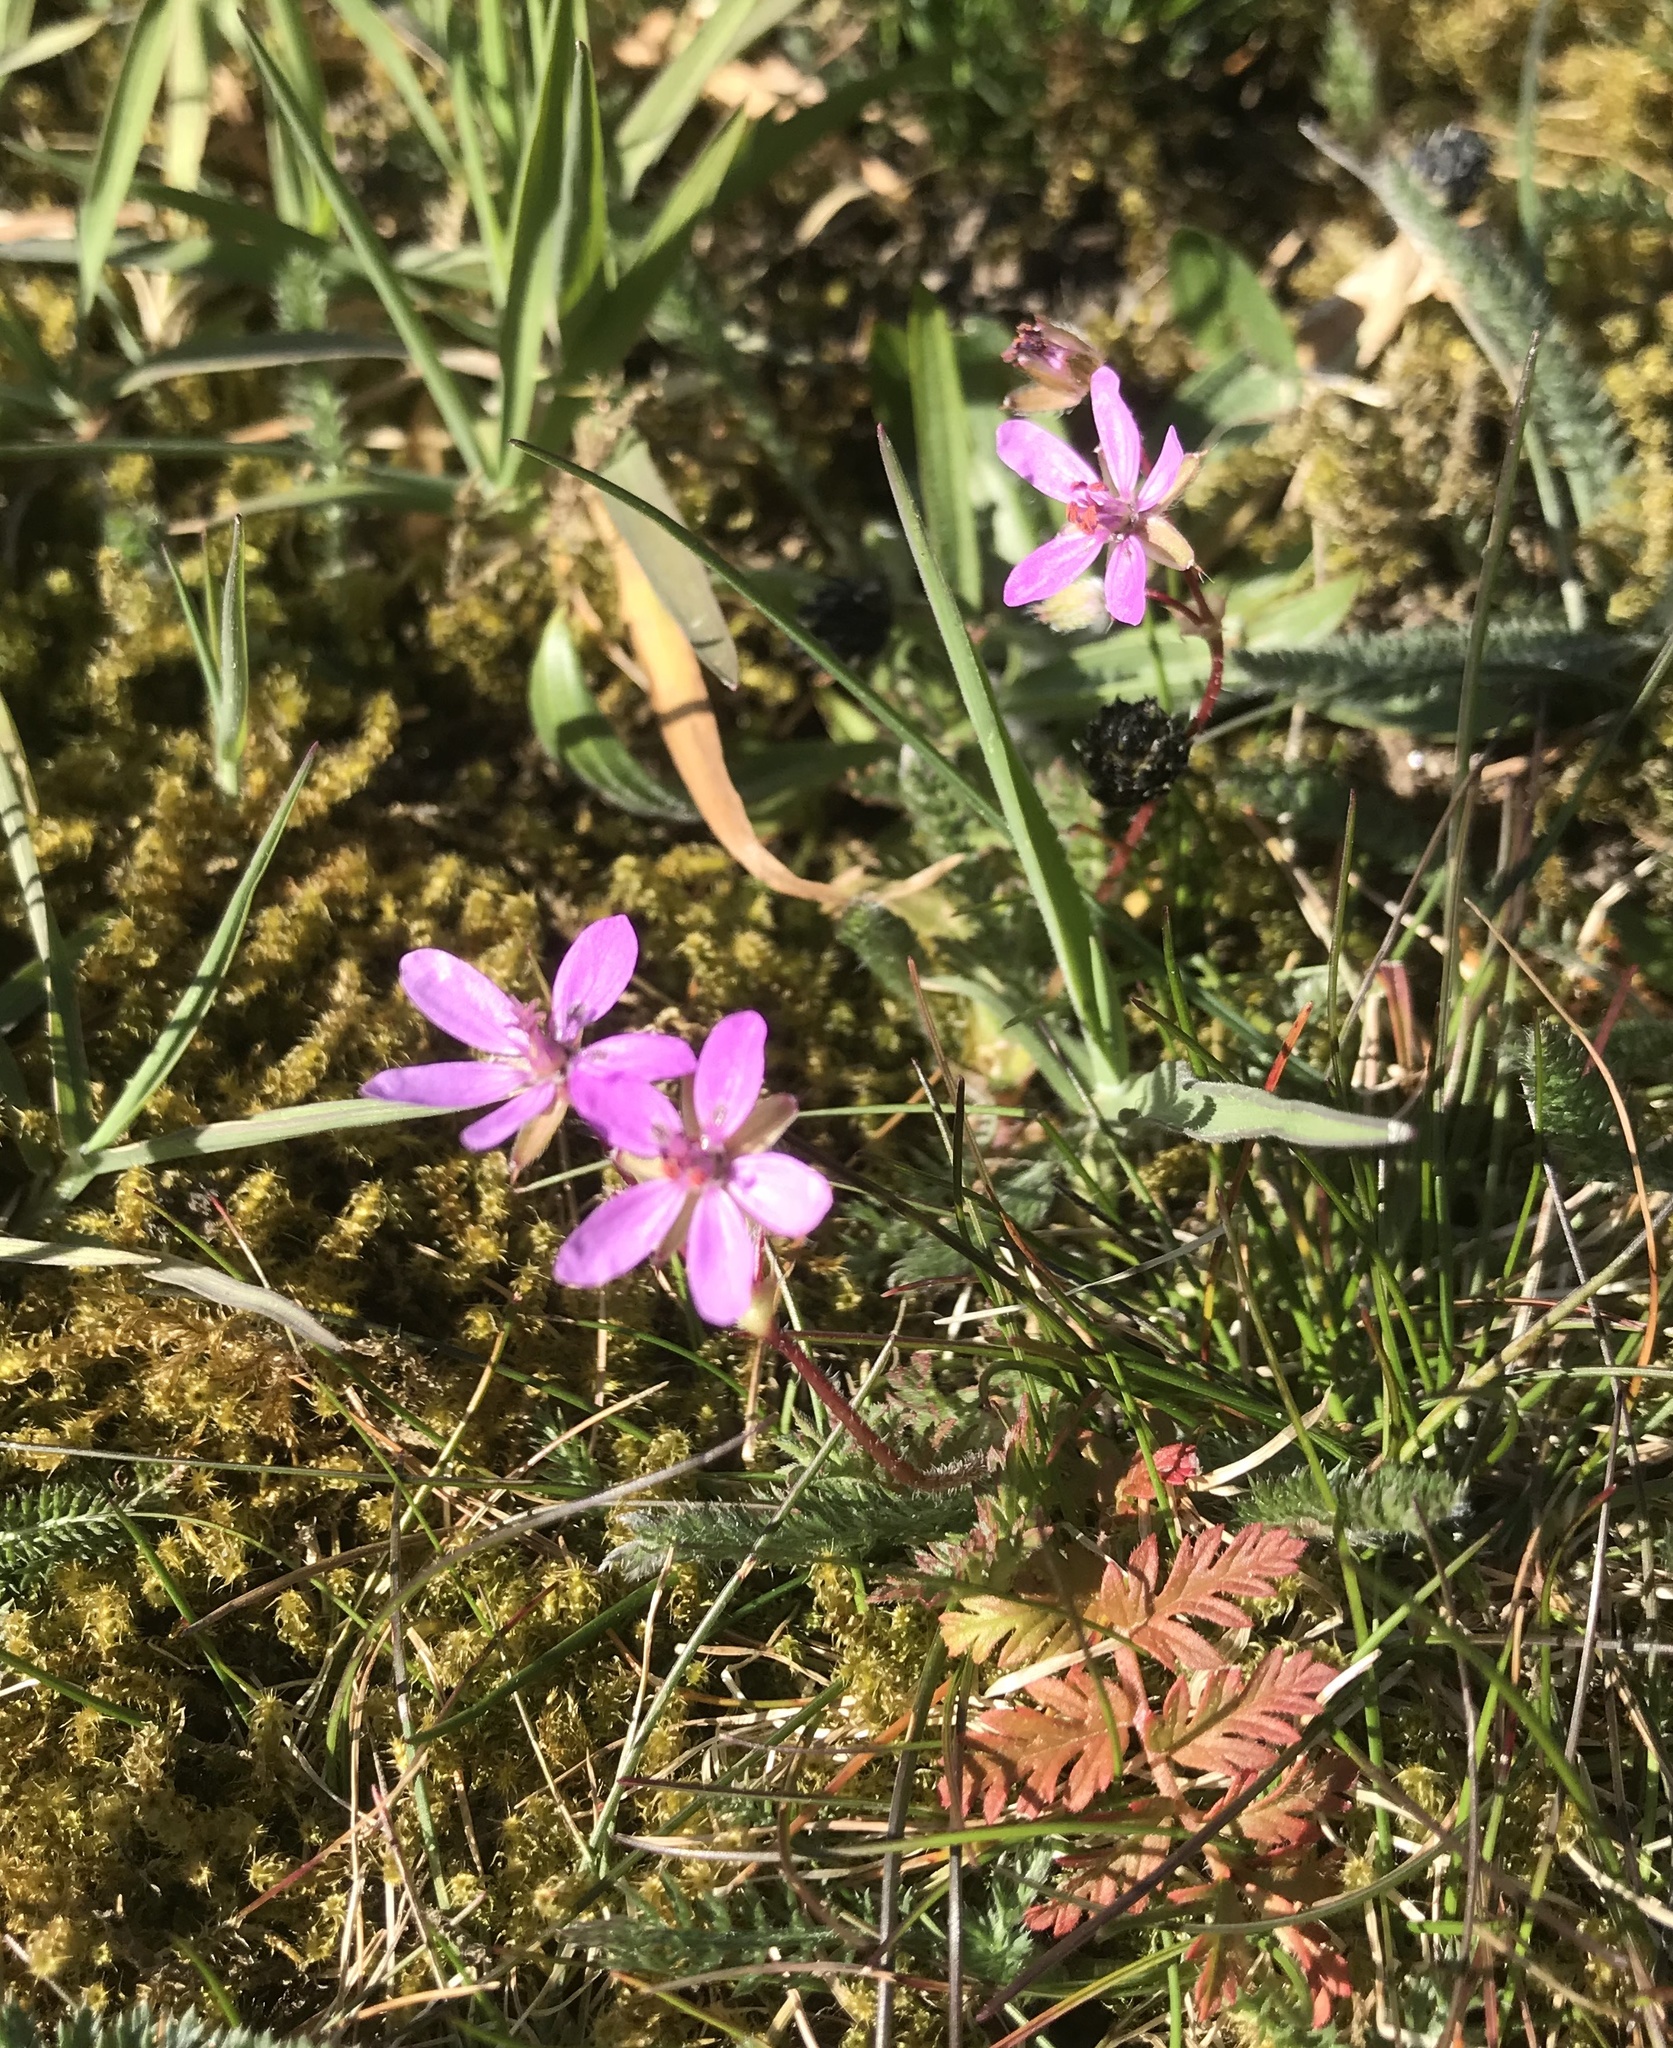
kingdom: Plantae
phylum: Tracheophyta
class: Magnoliopsida
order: Geraniales
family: Geraniaceae
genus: Erodium
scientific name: Erodium cicutarium
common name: Common stork's-bill
